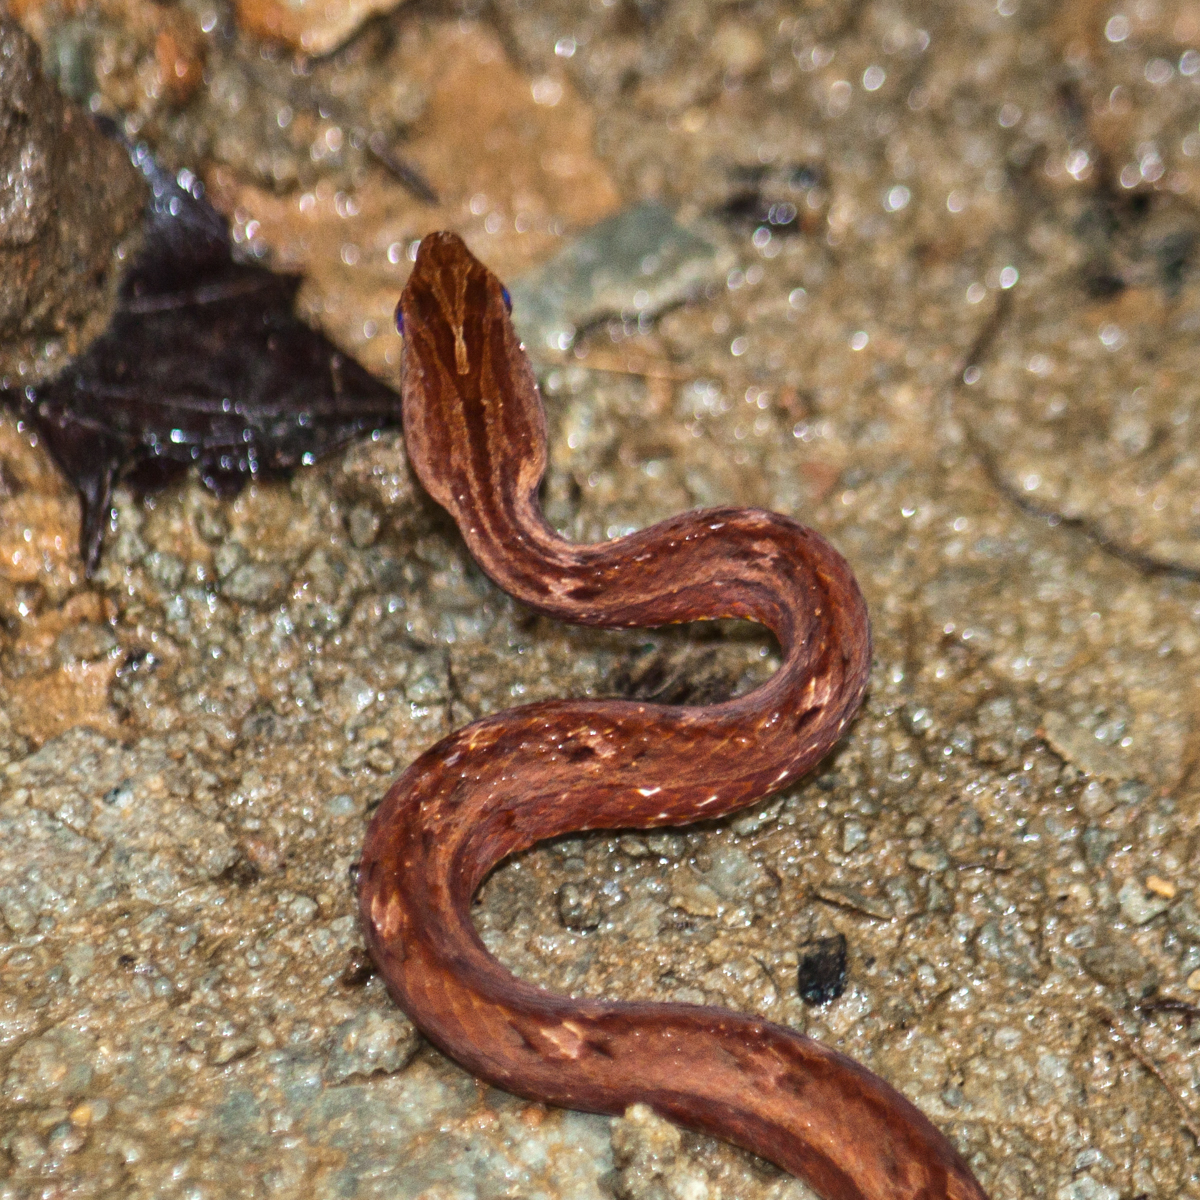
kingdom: Animalia
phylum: Chordata
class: Squamata
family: Pseudaspididae
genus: Psammodynastes
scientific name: Psammodynastes pulverulentus
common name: Common mock viper
